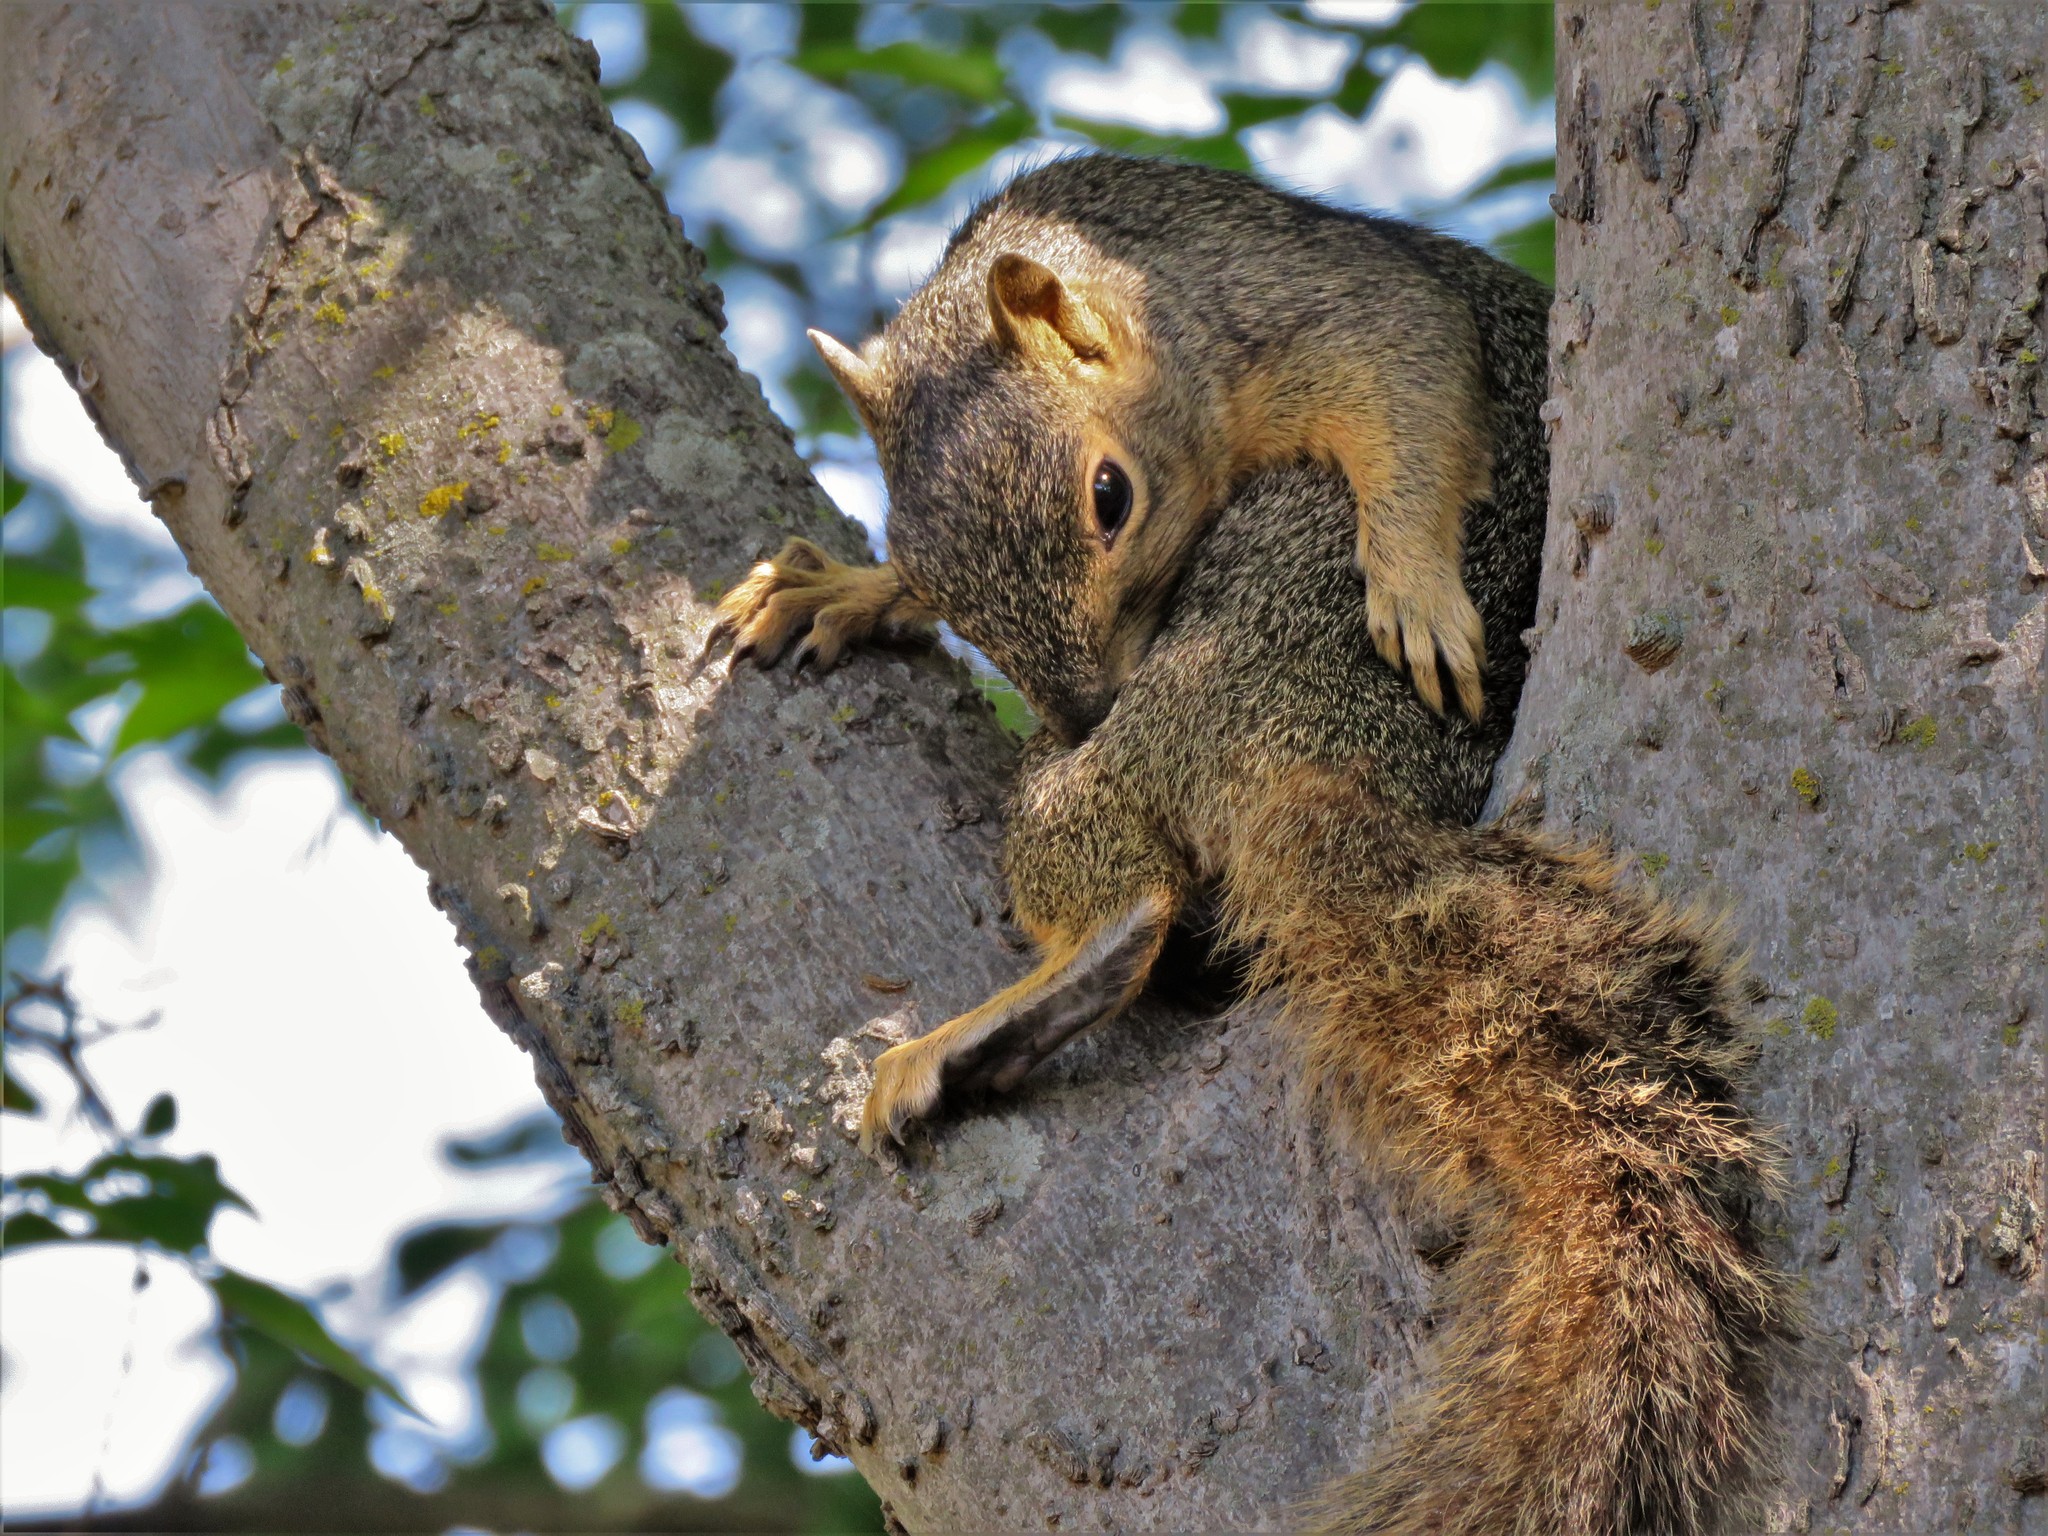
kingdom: Animalia
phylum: Chordata
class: Mammalia
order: Rodentia
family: Sciuridae
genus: Sciurus
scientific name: Sciurus niger
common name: Fox squirrel
